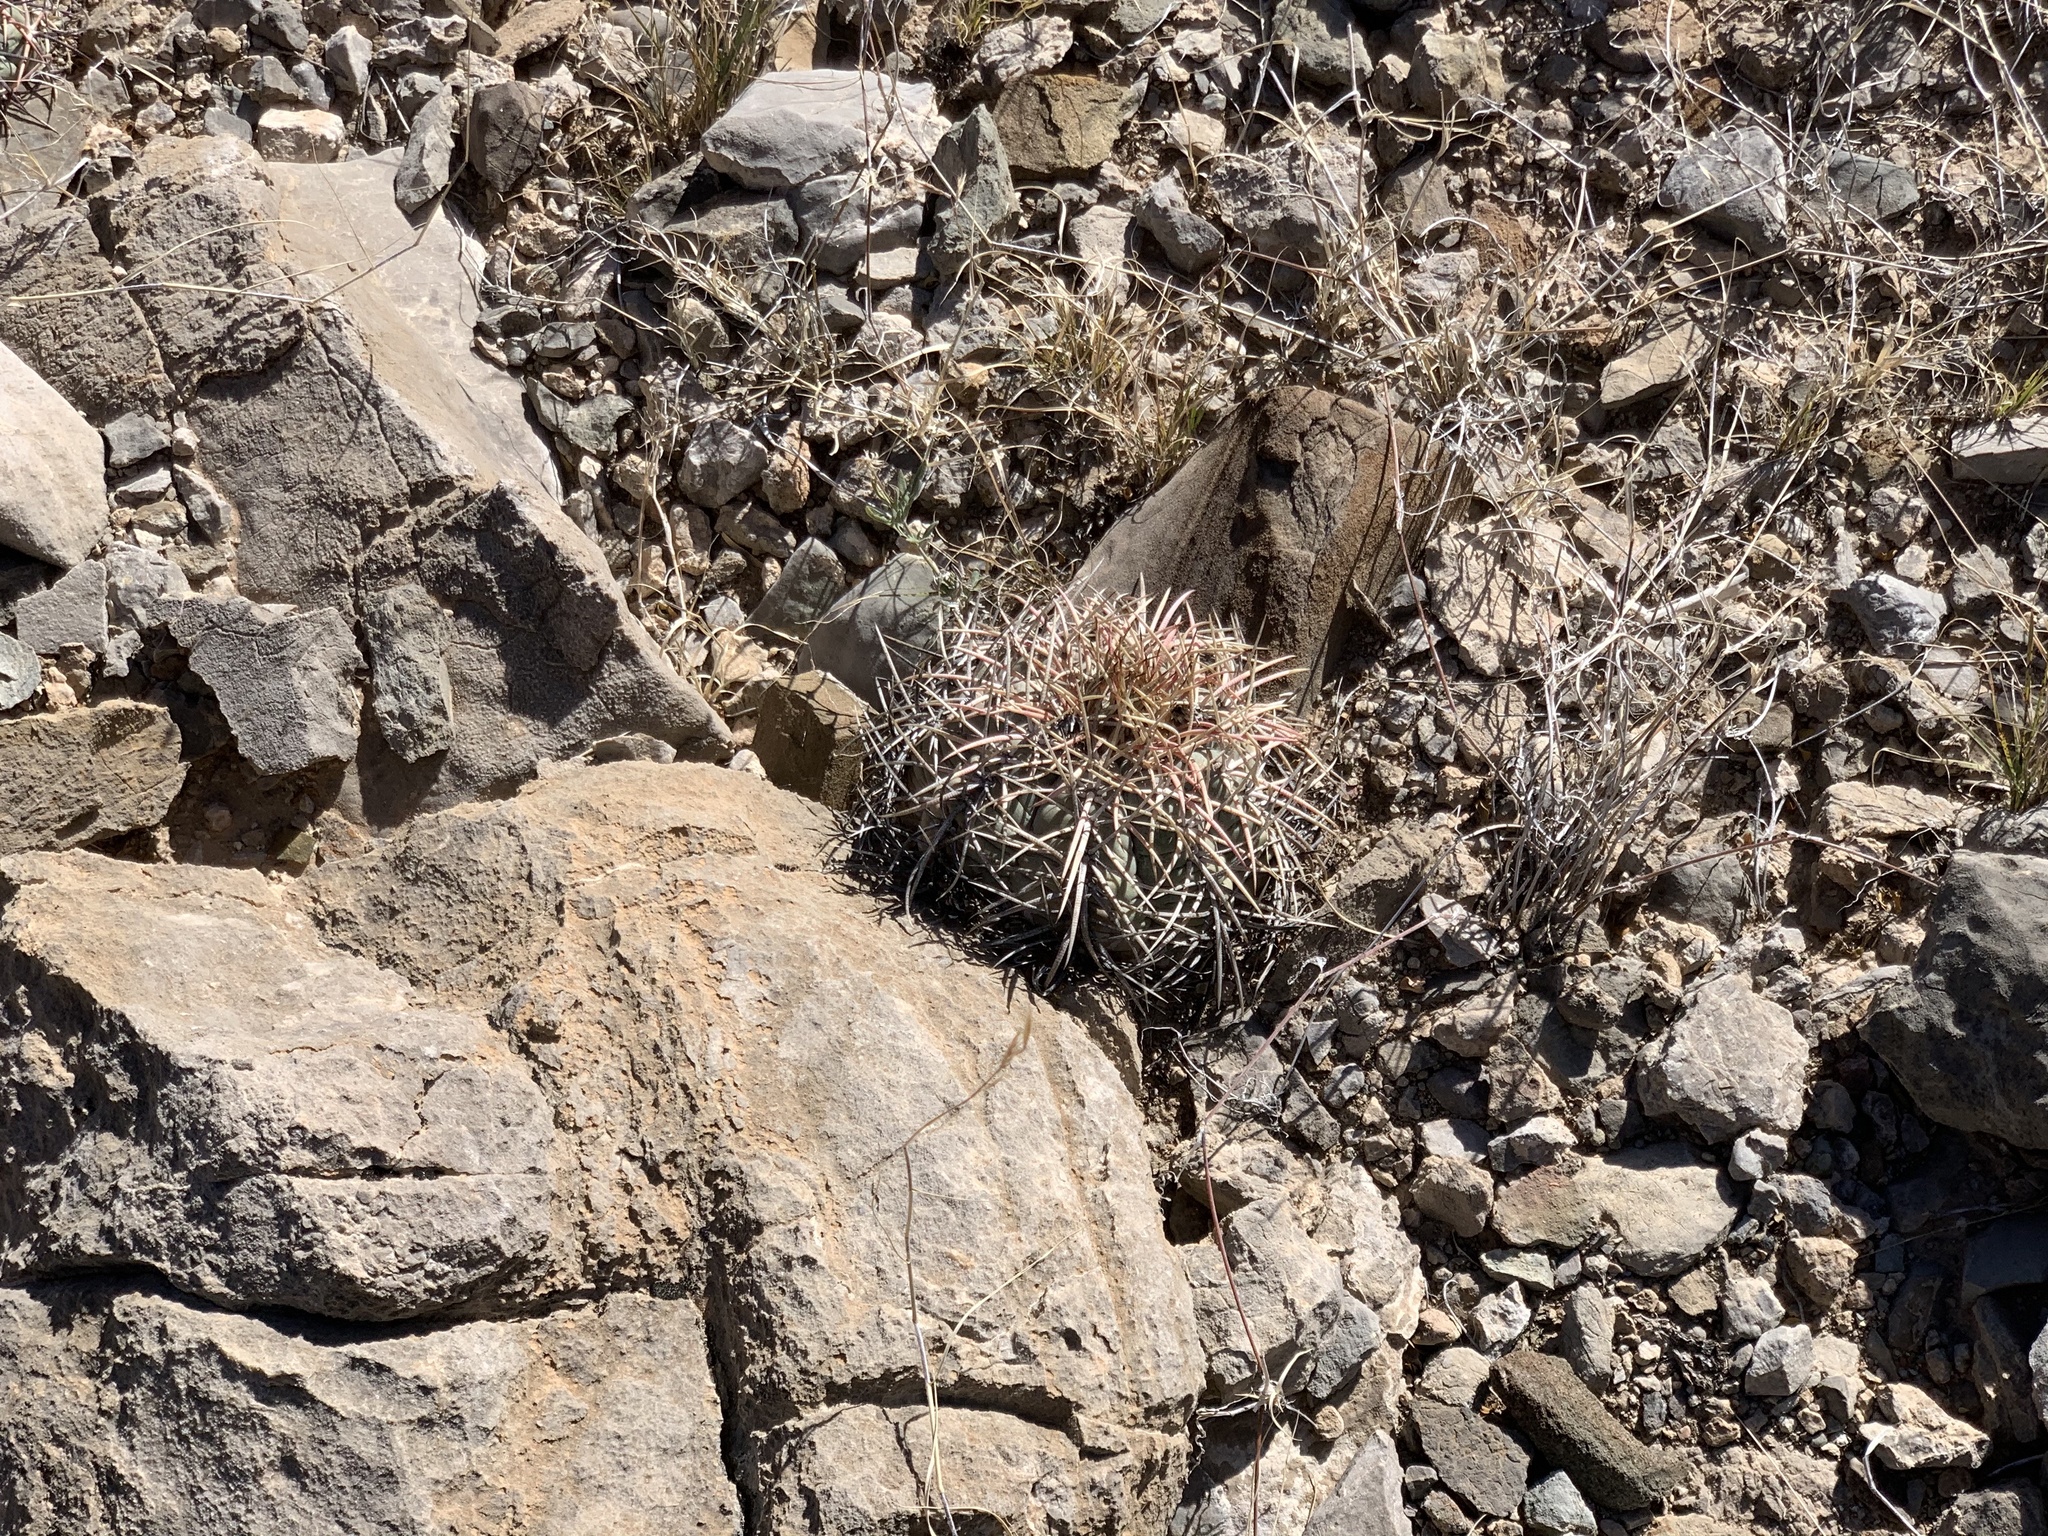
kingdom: Plantae
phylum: Tracheophyta
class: Magnoliopsida
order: Caryophyllales
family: Cactaceae
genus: Echinocactus
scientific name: Echinocactus horizonthalonius
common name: Devilshead
